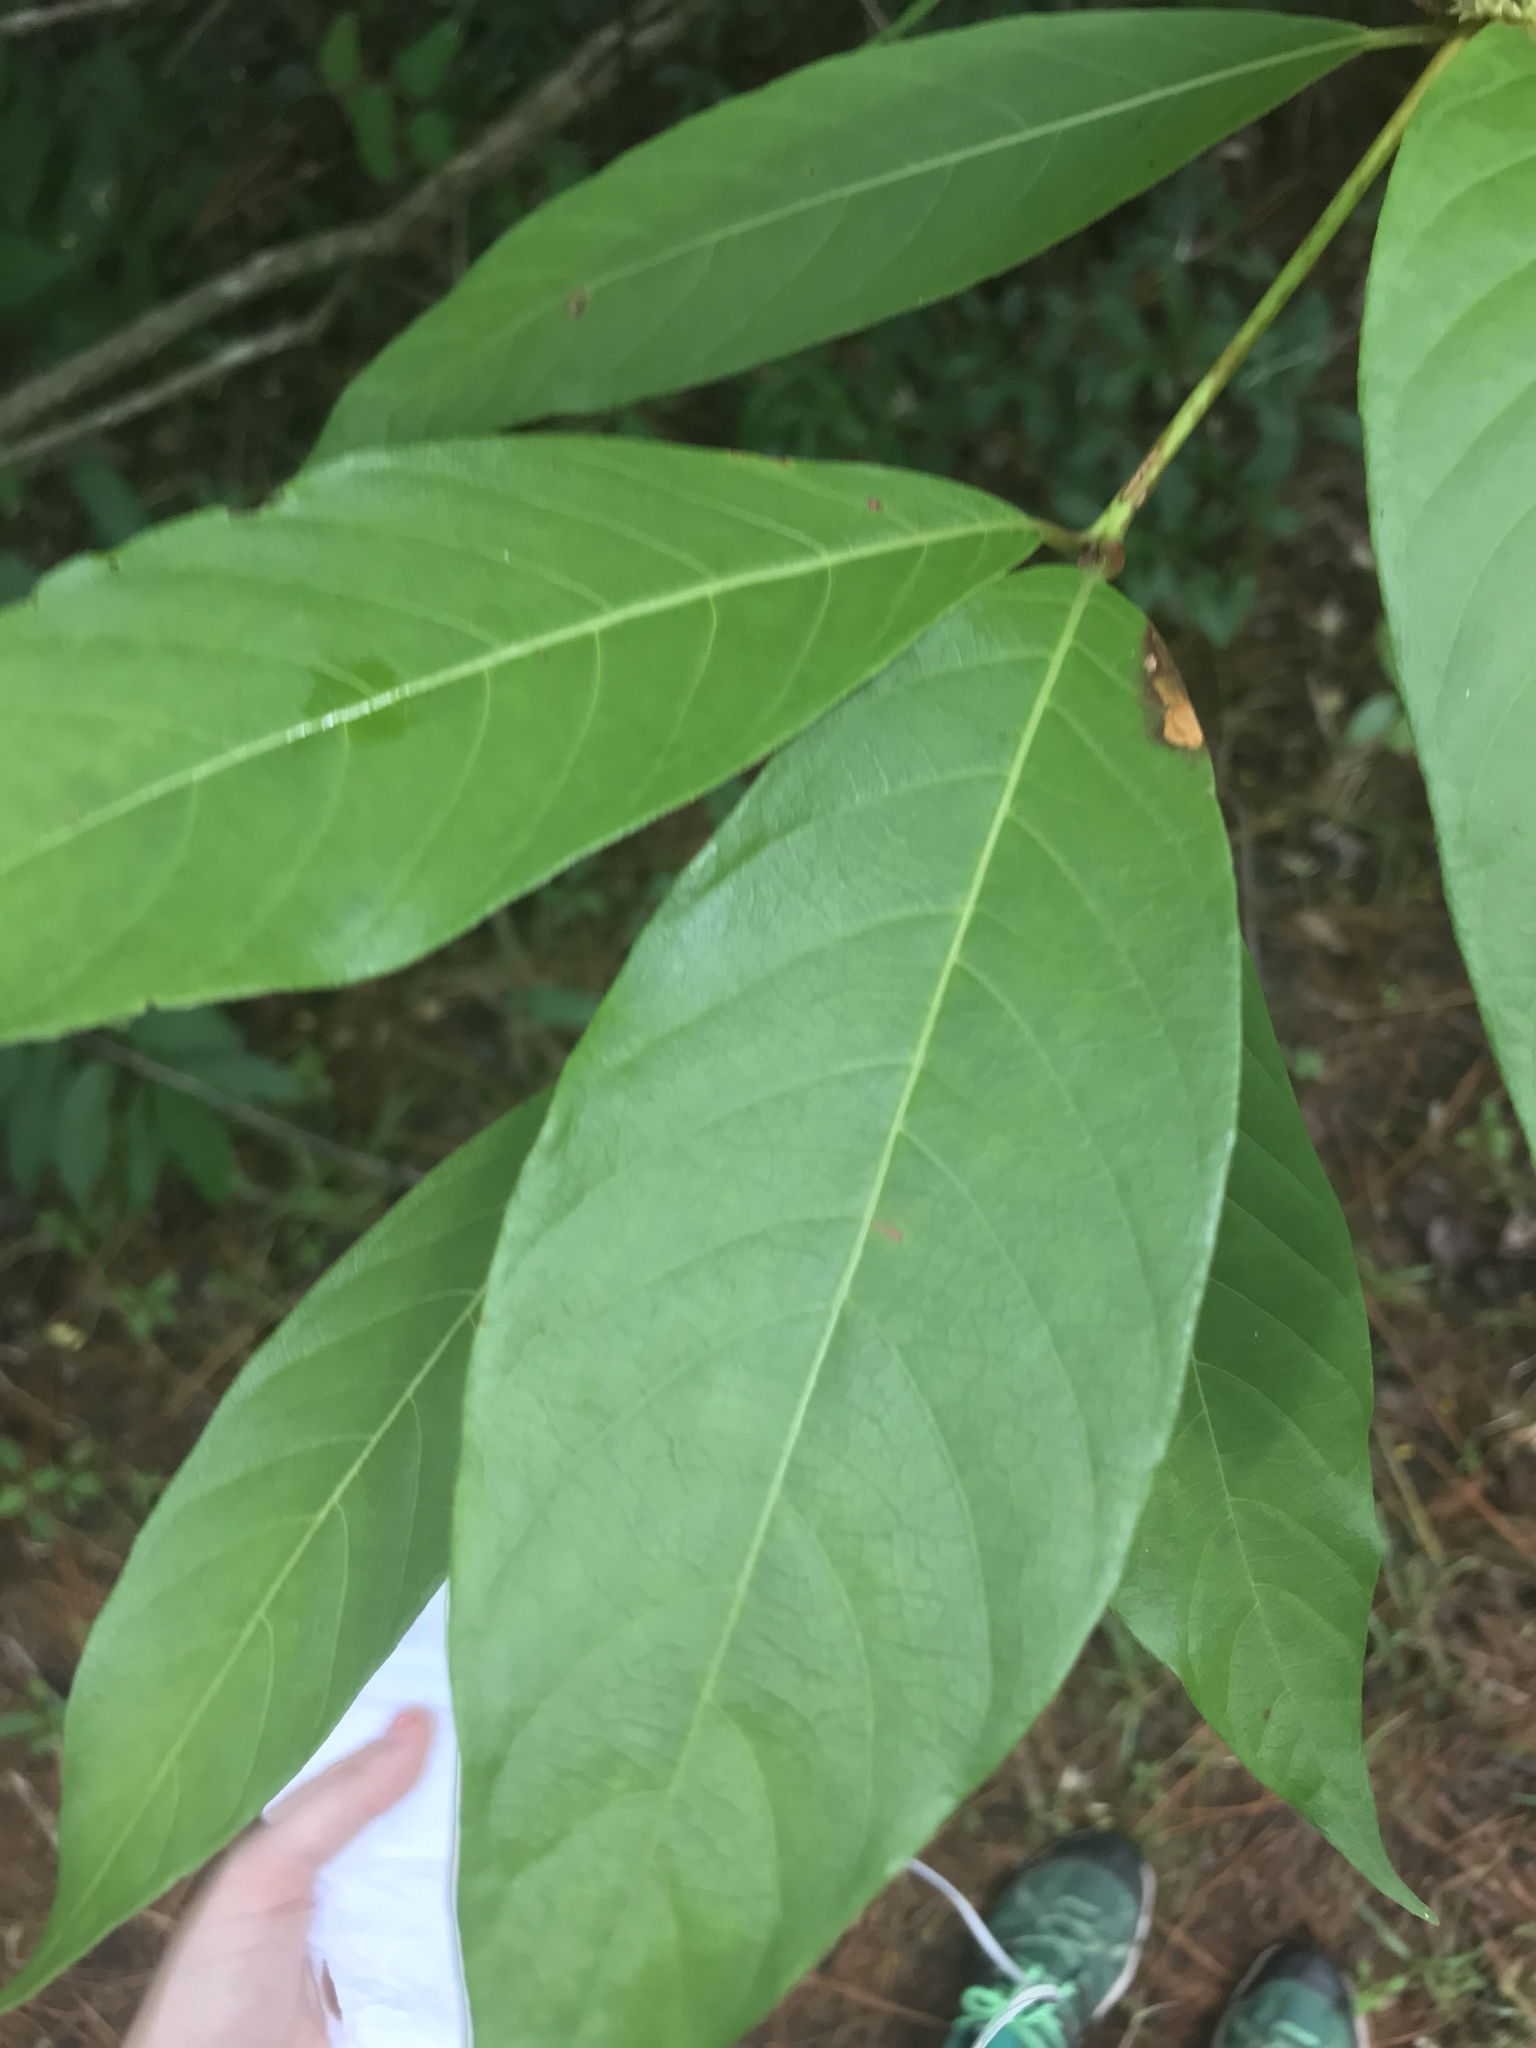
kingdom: Plantae
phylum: Tracheophyta
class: Magnoliopsida
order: Gentianales
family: Rubiaceae
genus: Cephalanthus
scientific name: Cephalanthus occidentalis
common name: Button-willow
